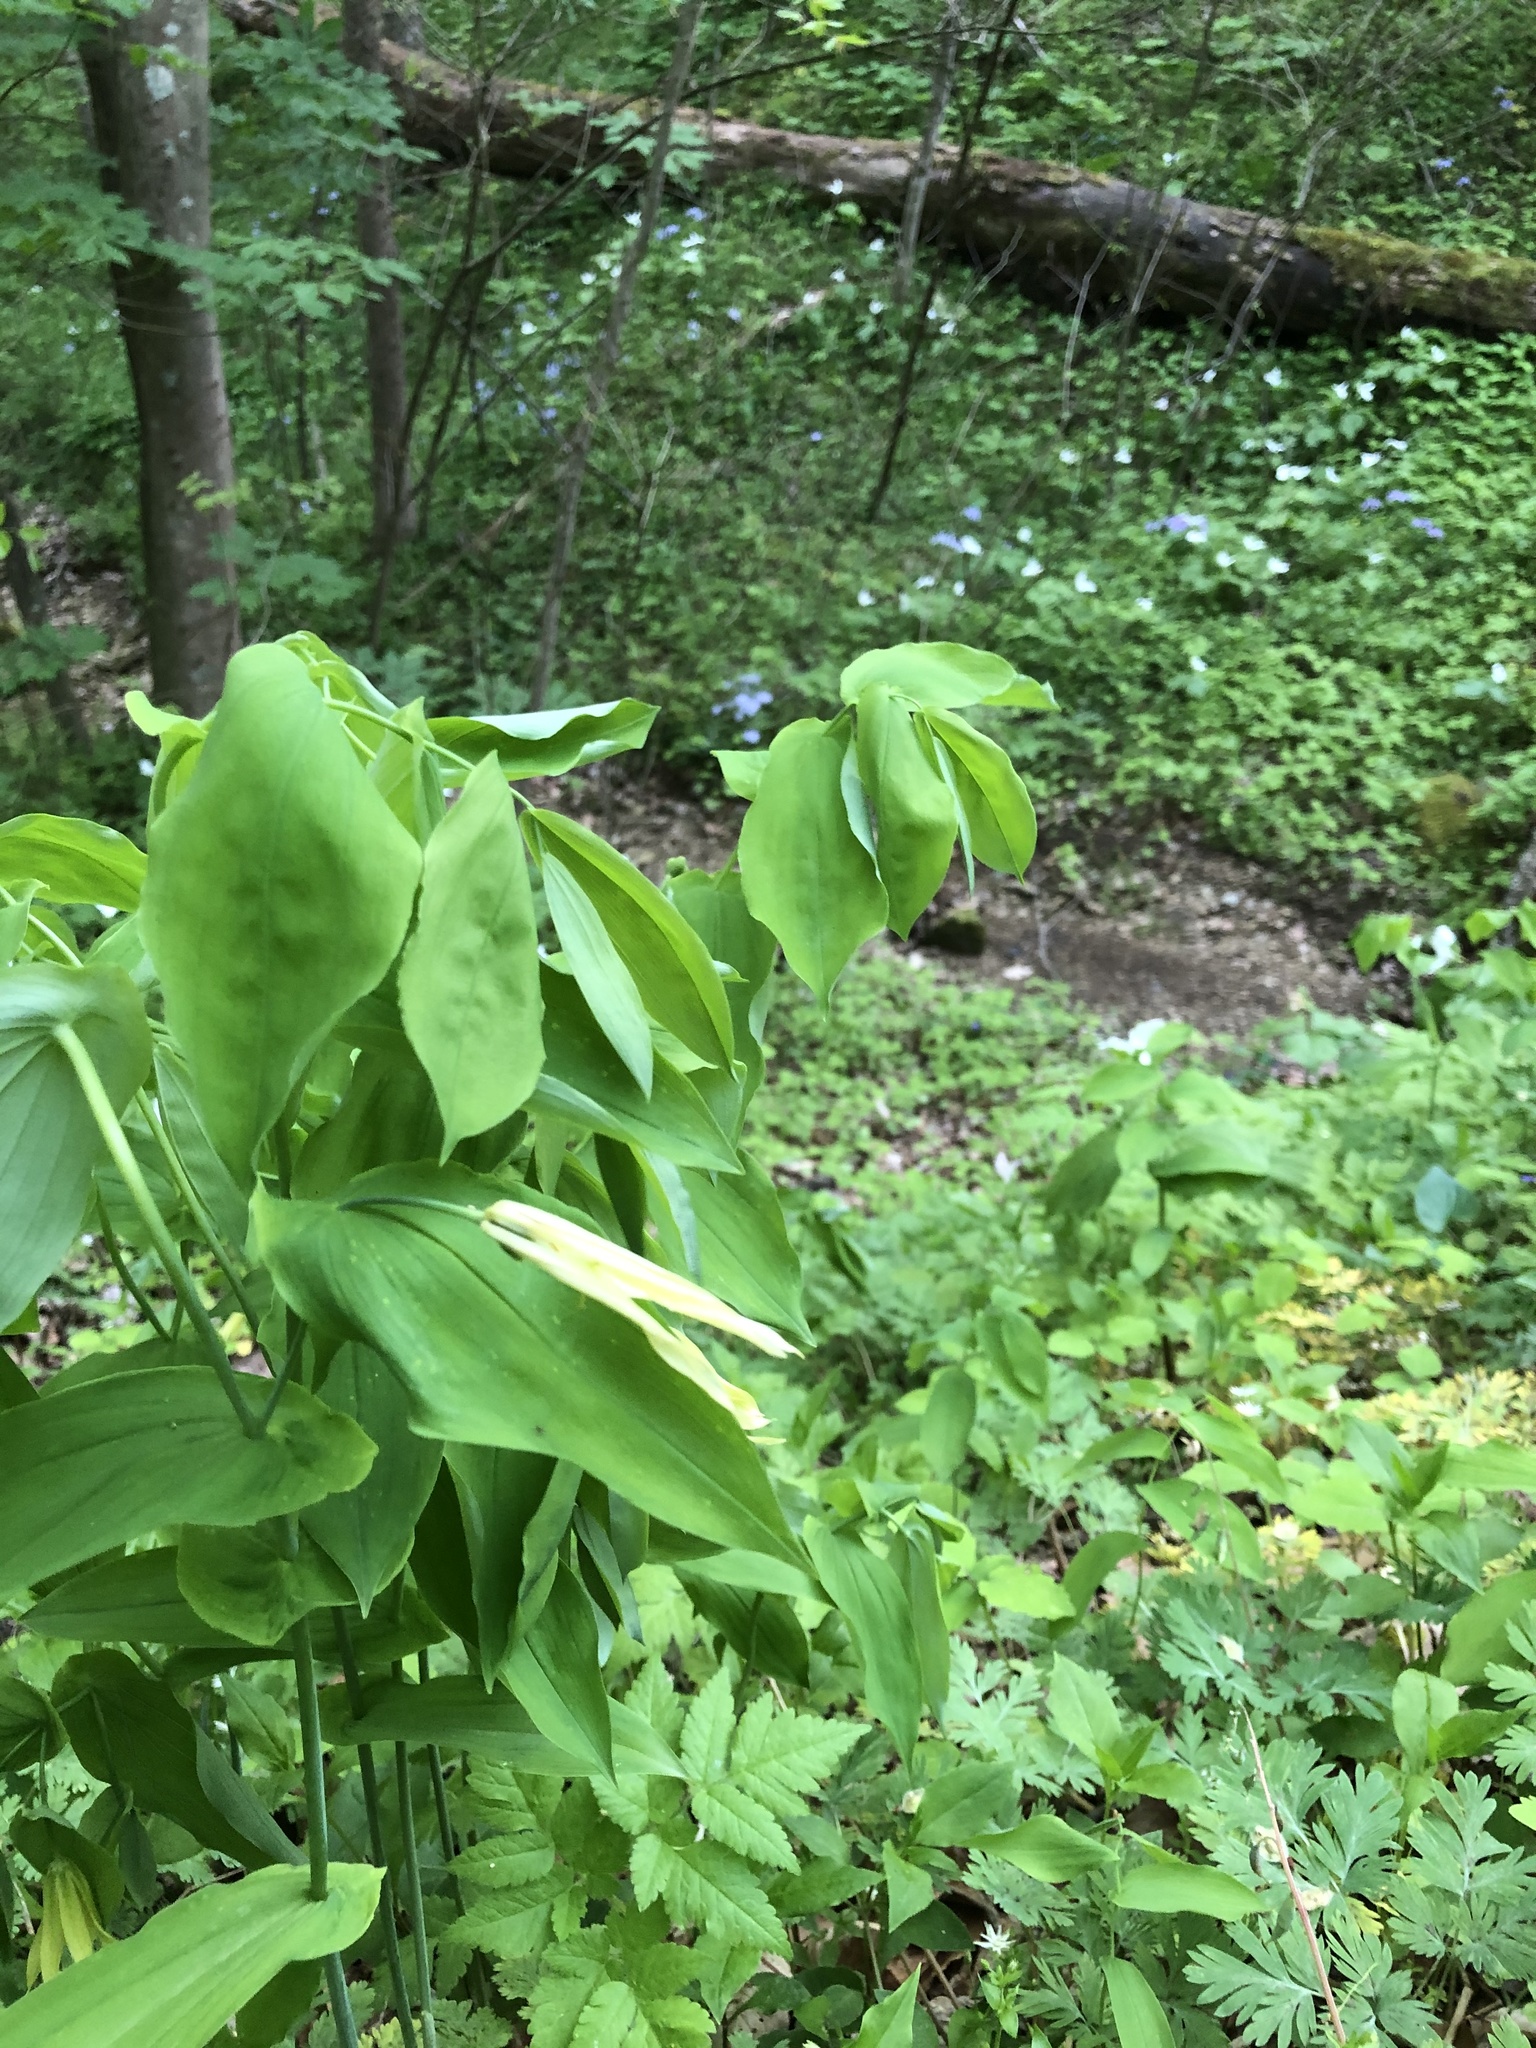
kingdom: Plantae
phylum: Tracheophyta
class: Liliopsida
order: Liliales
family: Colchicaceae
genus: Uvularia
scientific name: Uvularia grandiflora
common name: Bellwort
